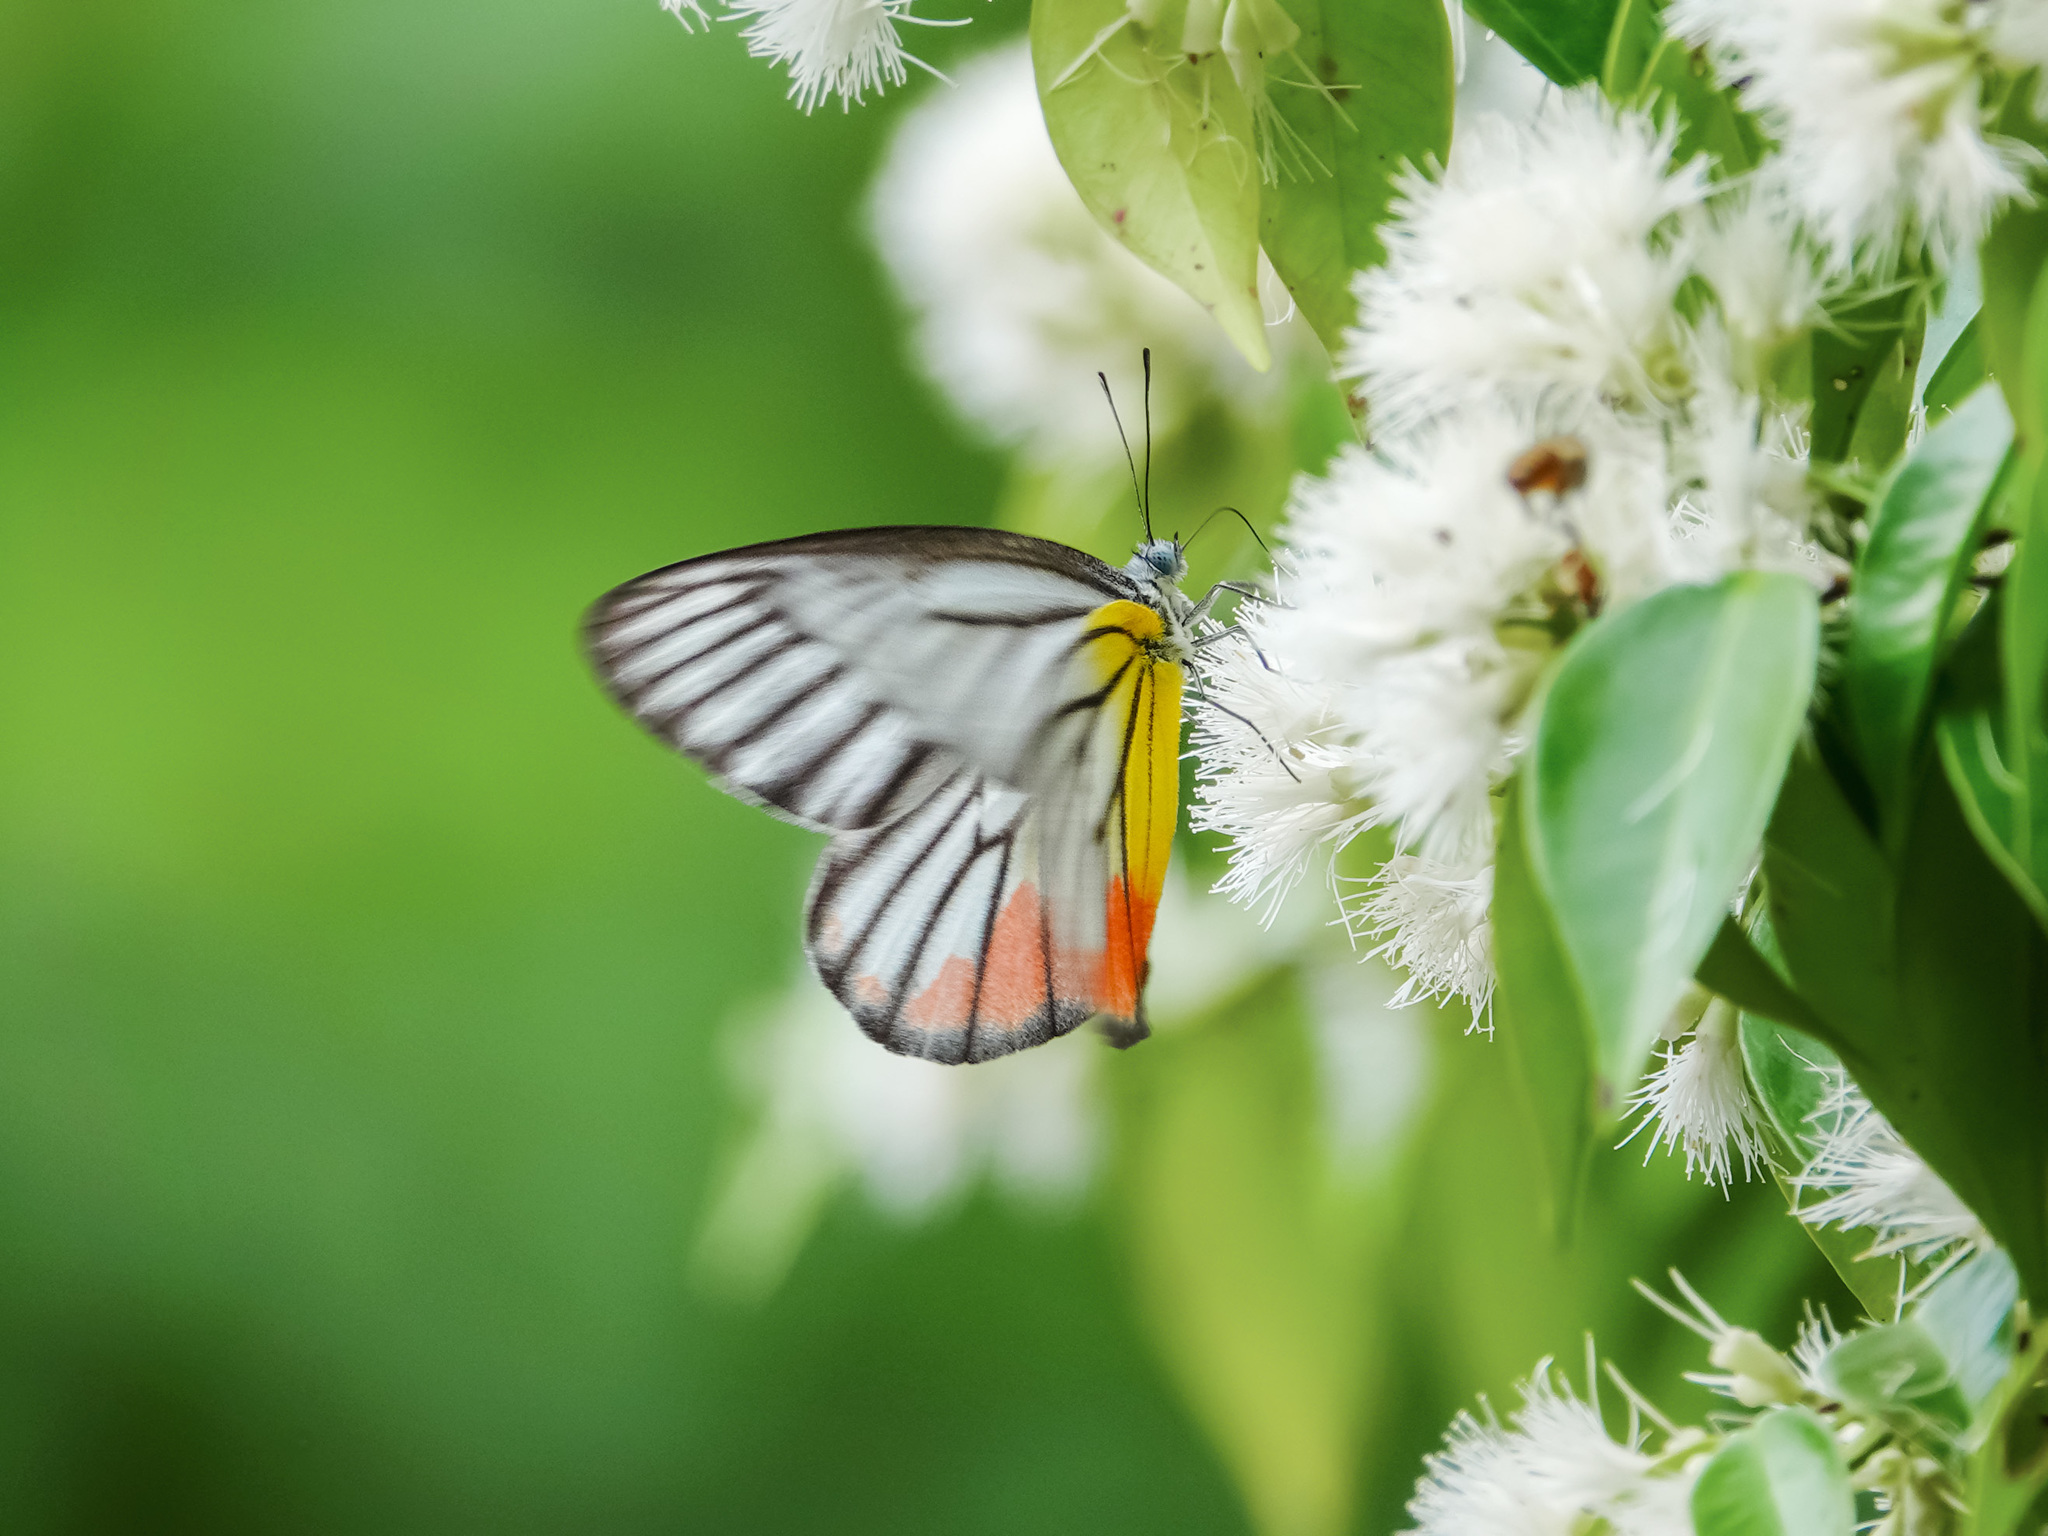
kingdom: Animalia
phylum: Arthropoda
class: Insecta
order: Lepidoptera
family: Pieridae
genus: Delias
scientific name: Delias hyparete
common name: Painted jezebel
